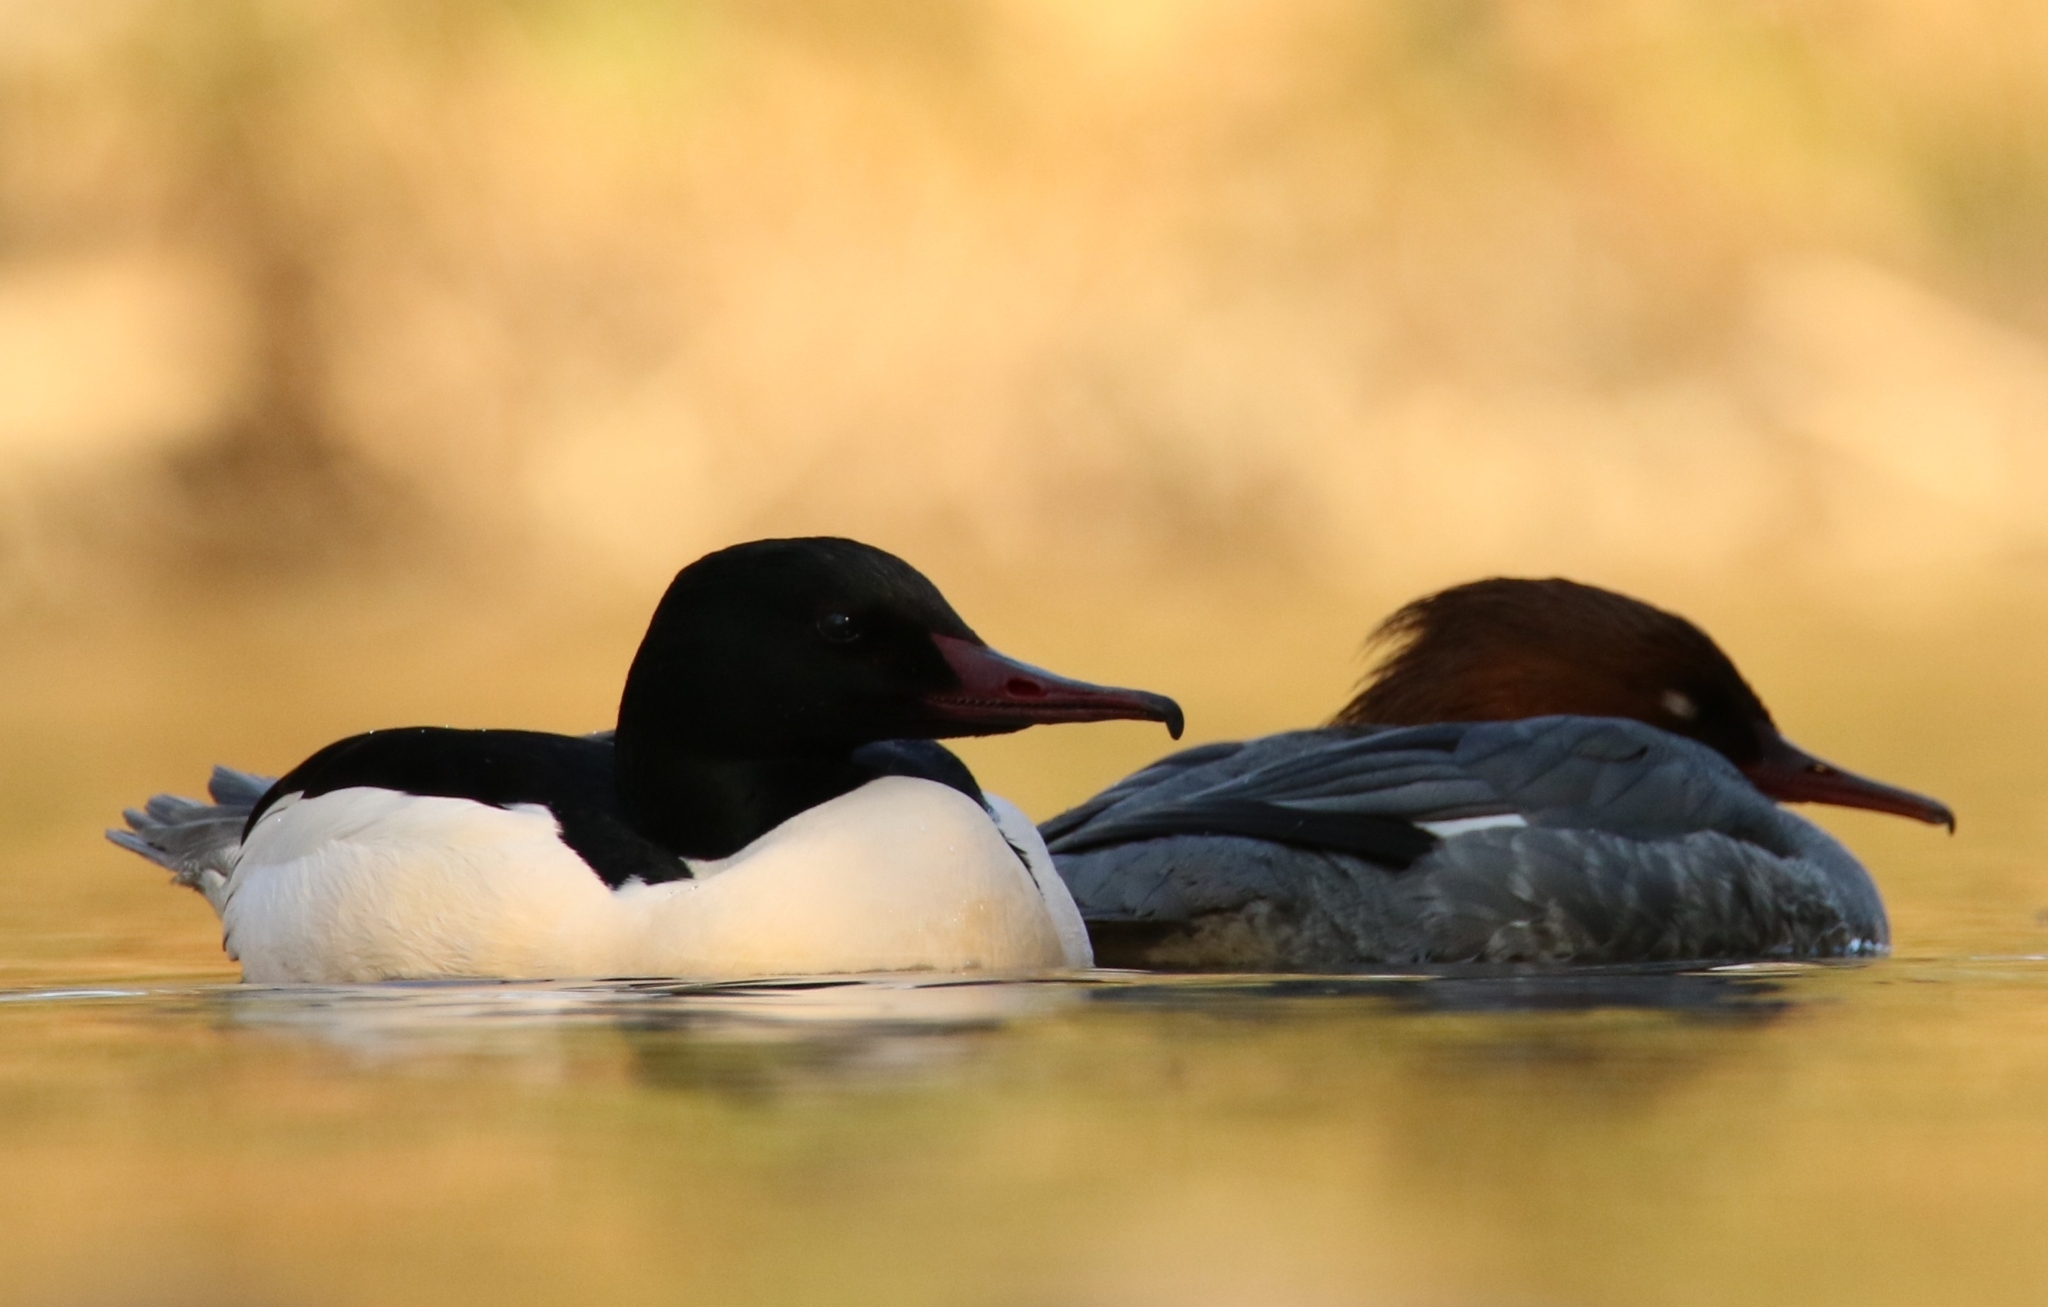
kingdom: Animalia
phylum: Chordata
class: Aves
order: Anseriformes
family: Anatidae
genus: Mergus
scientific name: Mergus merganser
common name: Common merganser
